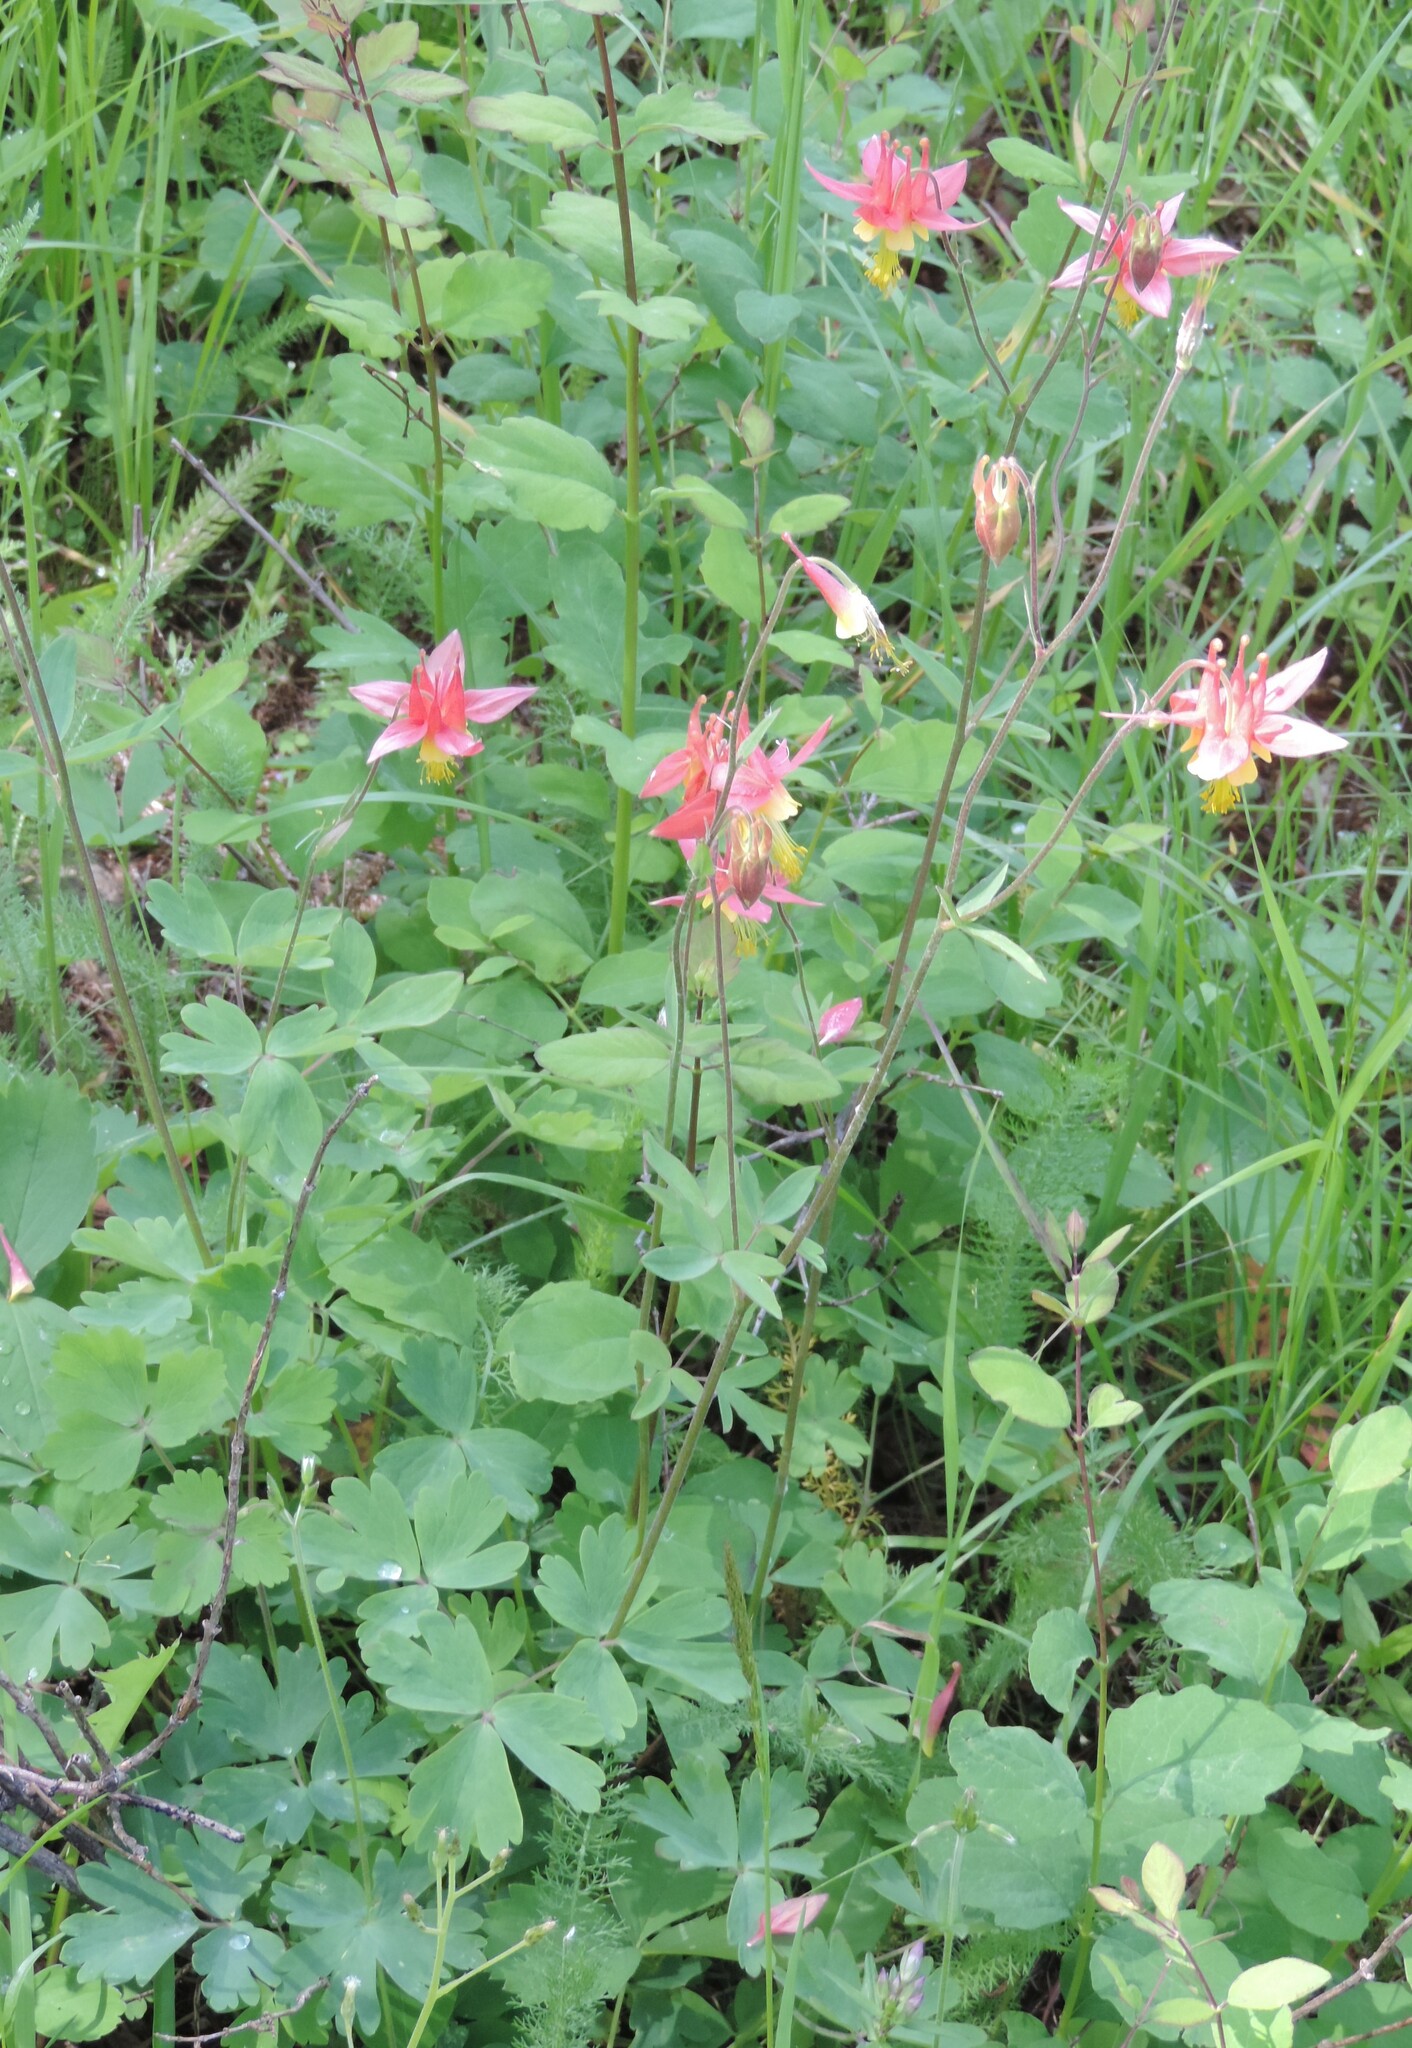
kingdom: Plantae
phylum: Tracheophyta
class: Magnoliopsida
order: Ranunculales
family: Ranunculaceae
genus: Aquilegia
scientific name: Aquilegia formosa
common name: Sitka columbine
